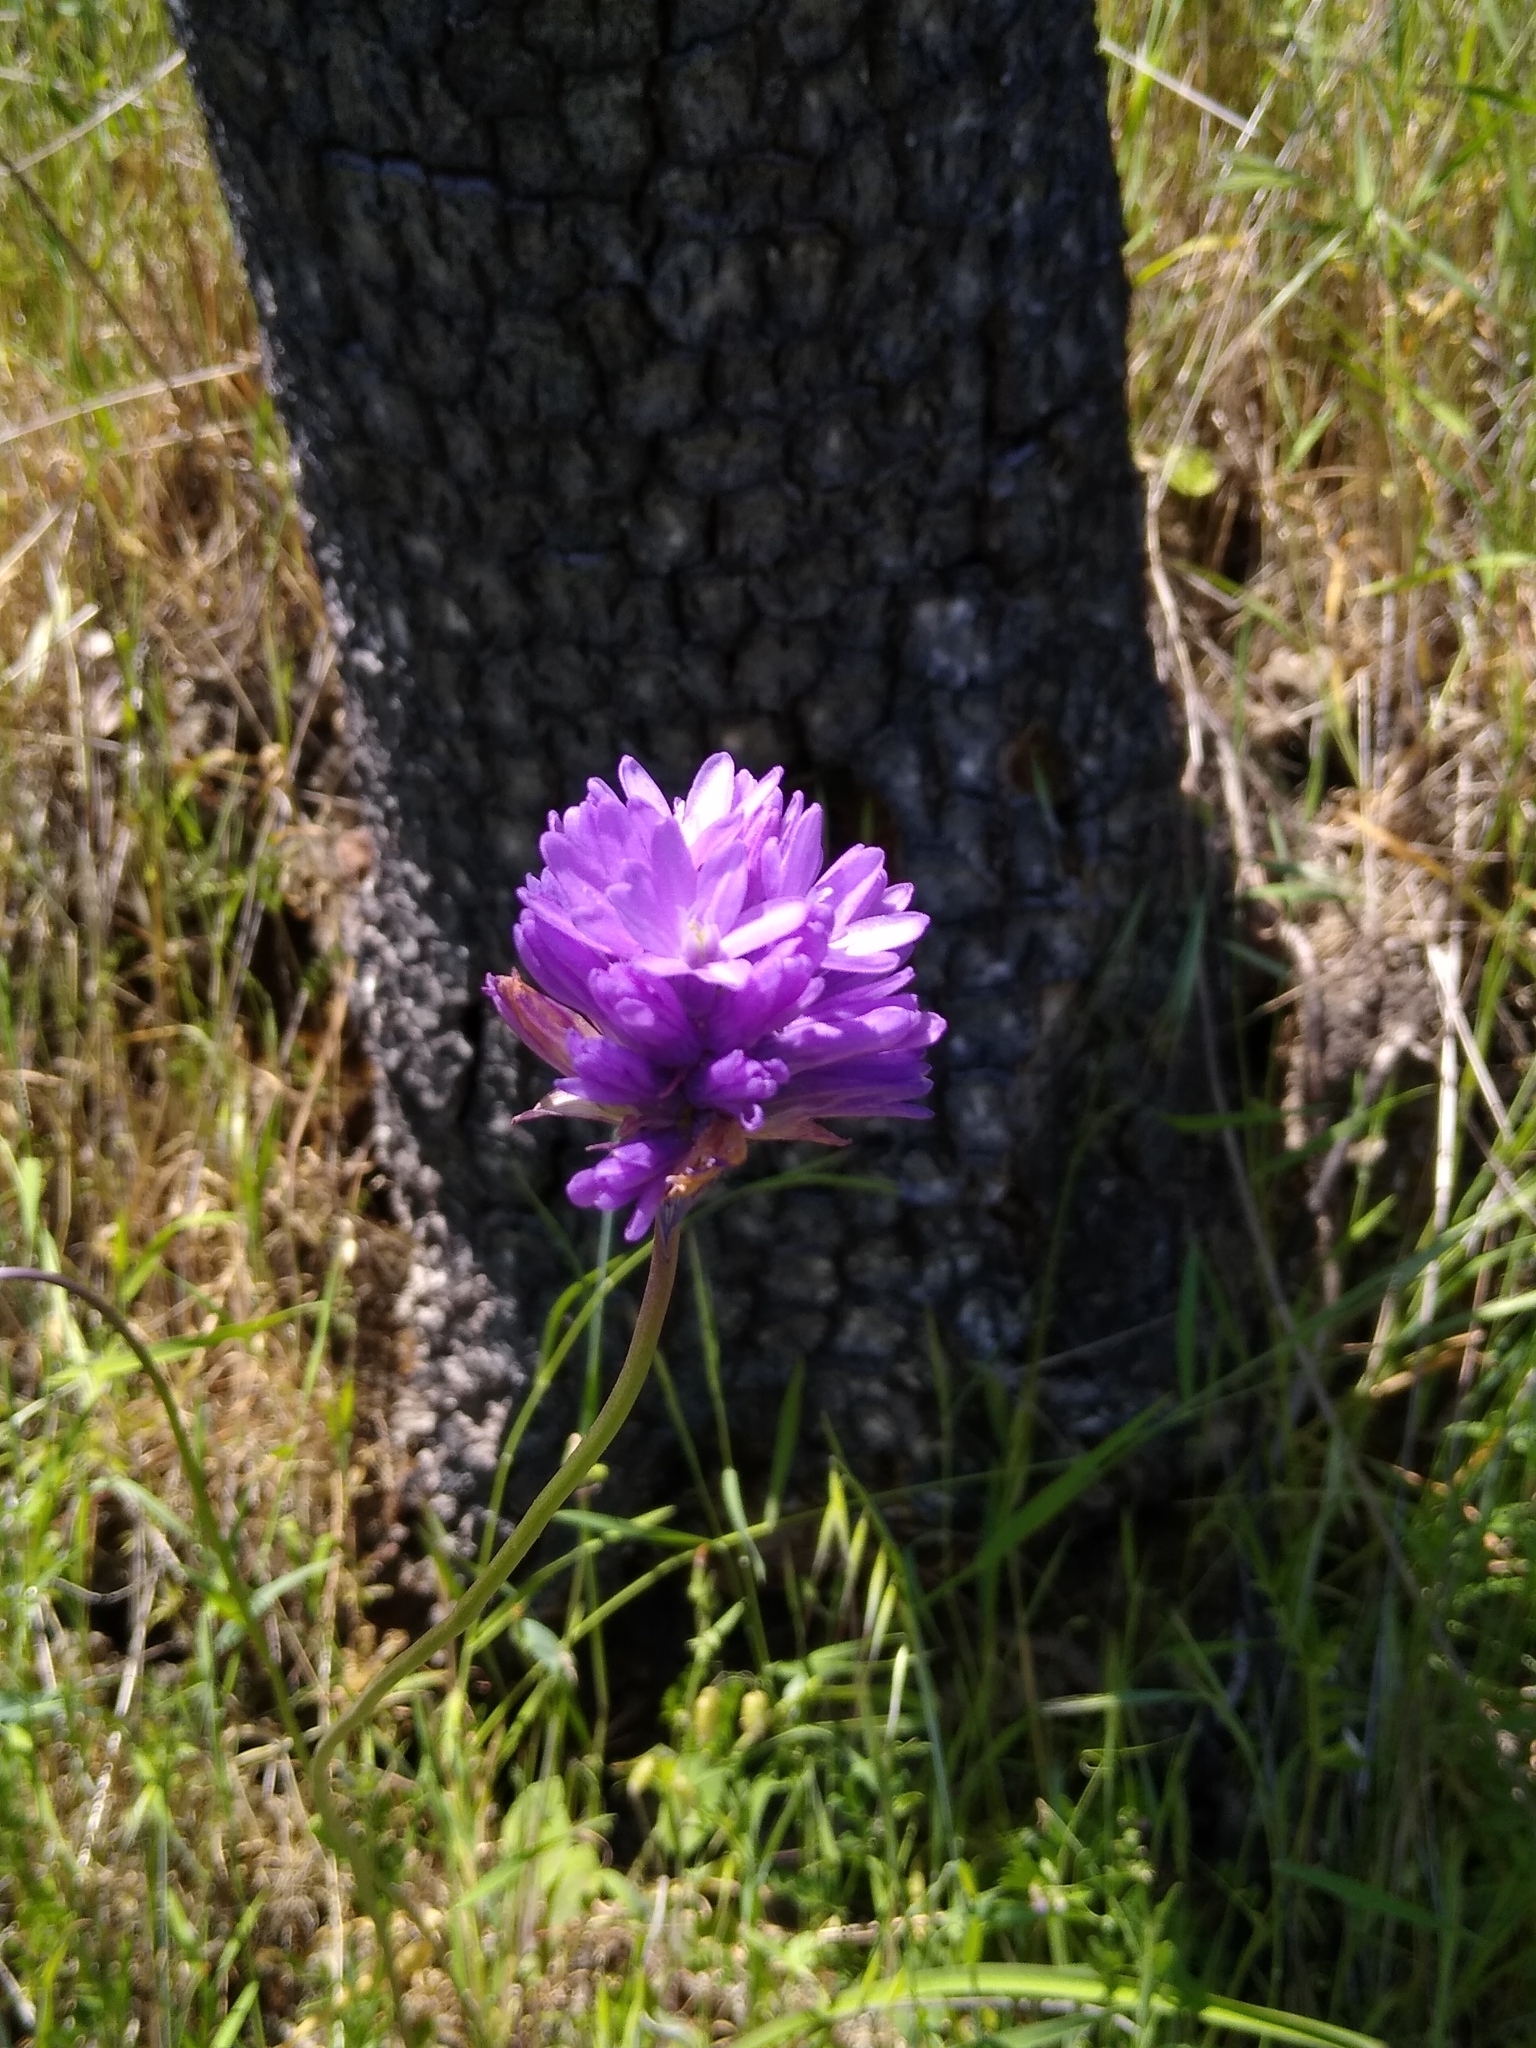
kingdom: Plantae
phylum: Tracheophyta
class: Liliopsida
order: Asparagales
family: Asparagaceae
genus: Dichelostemma
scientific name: Dichelostemma congestum
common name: Fork-tooth ookow
